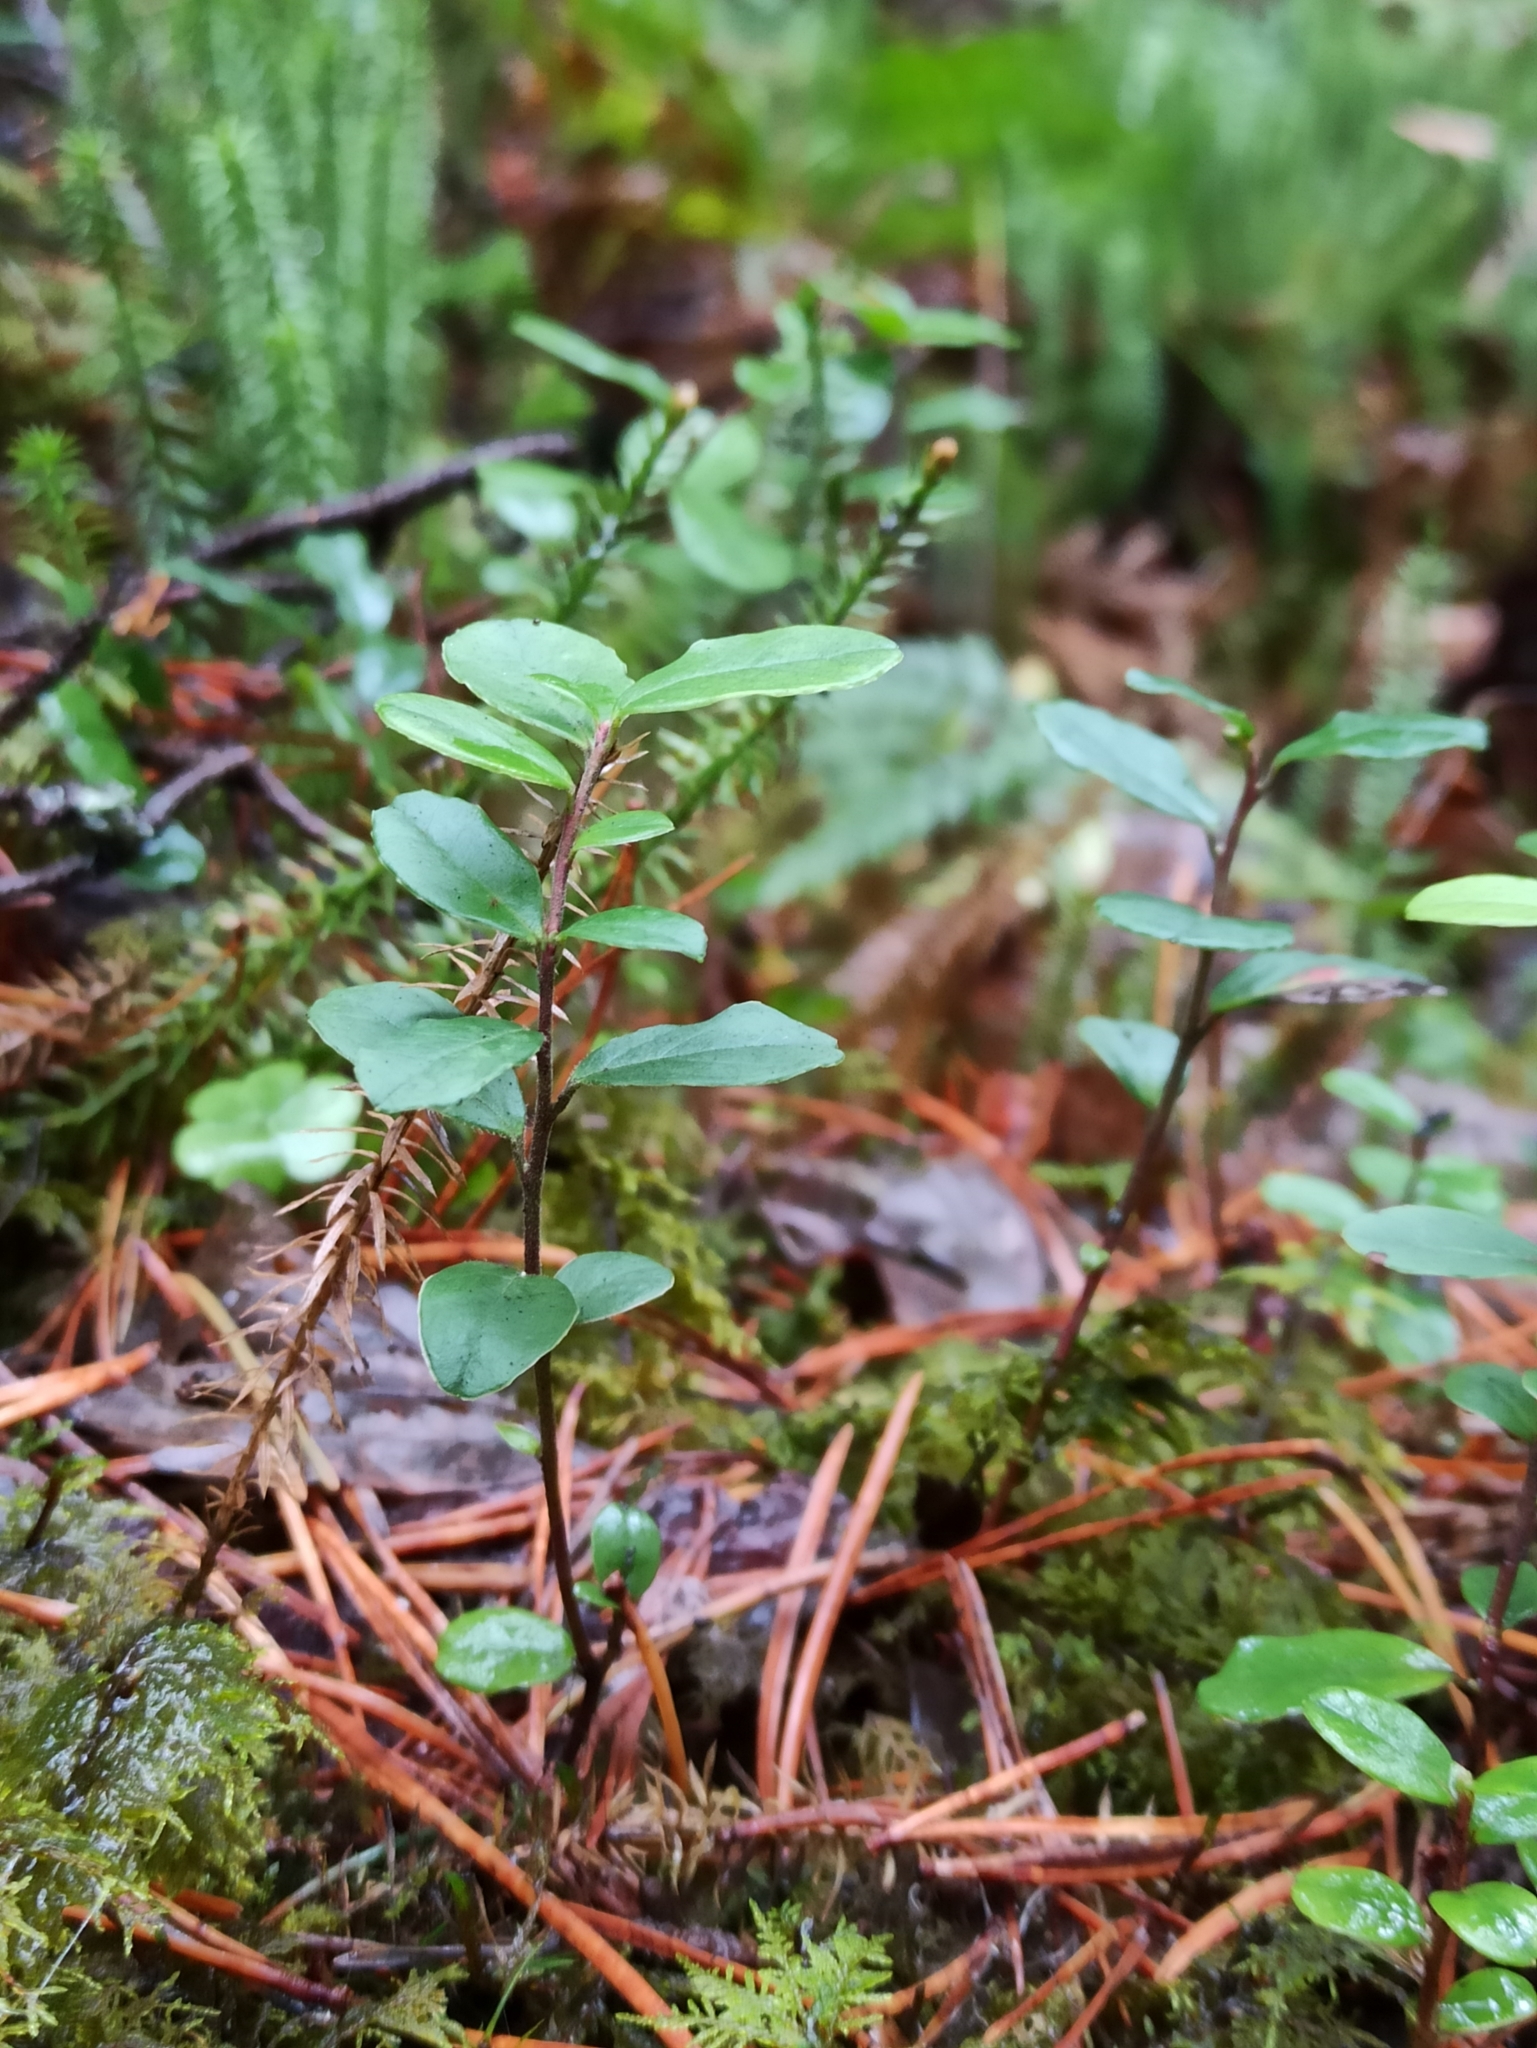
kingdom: Plantae
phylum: Tracheophyta
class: Magnoliopsida
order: Ericales
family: Ericaceae
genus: Vaccinium
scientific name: Vaccinium vitis-idaea
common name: Cowberry
